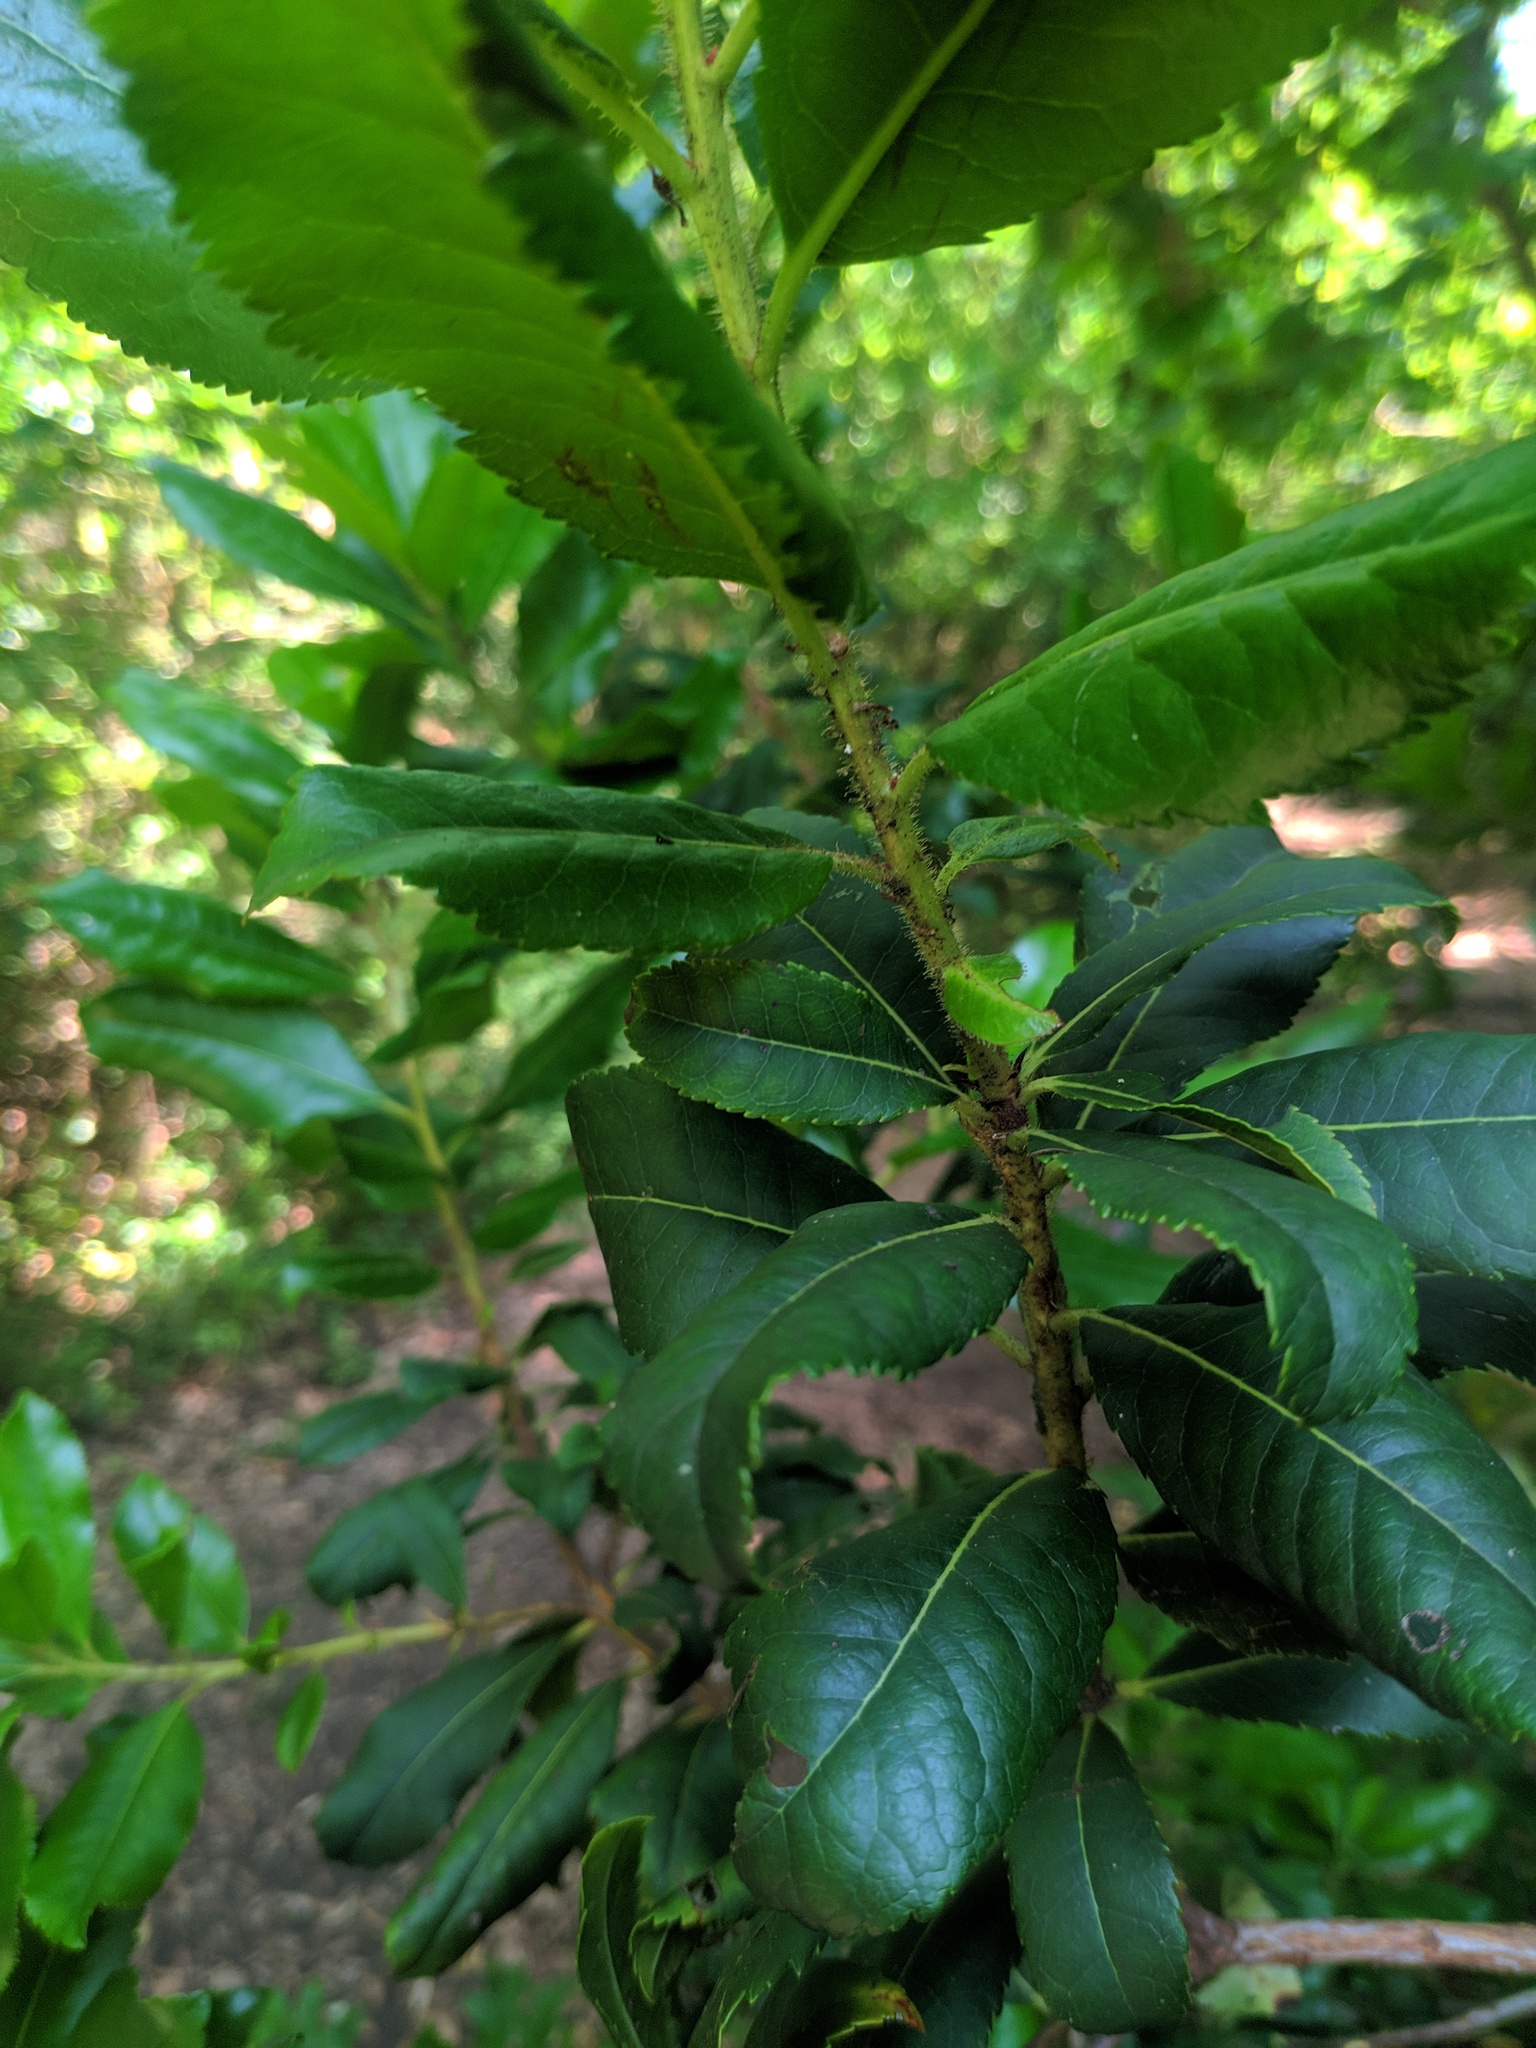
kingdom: Plantae
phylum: Tracheophyta
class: Magnoliopsida
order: Ericales
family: Ericaceae
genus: Arbutus
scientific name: Arbutus unedo
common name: Strawberry-tree
